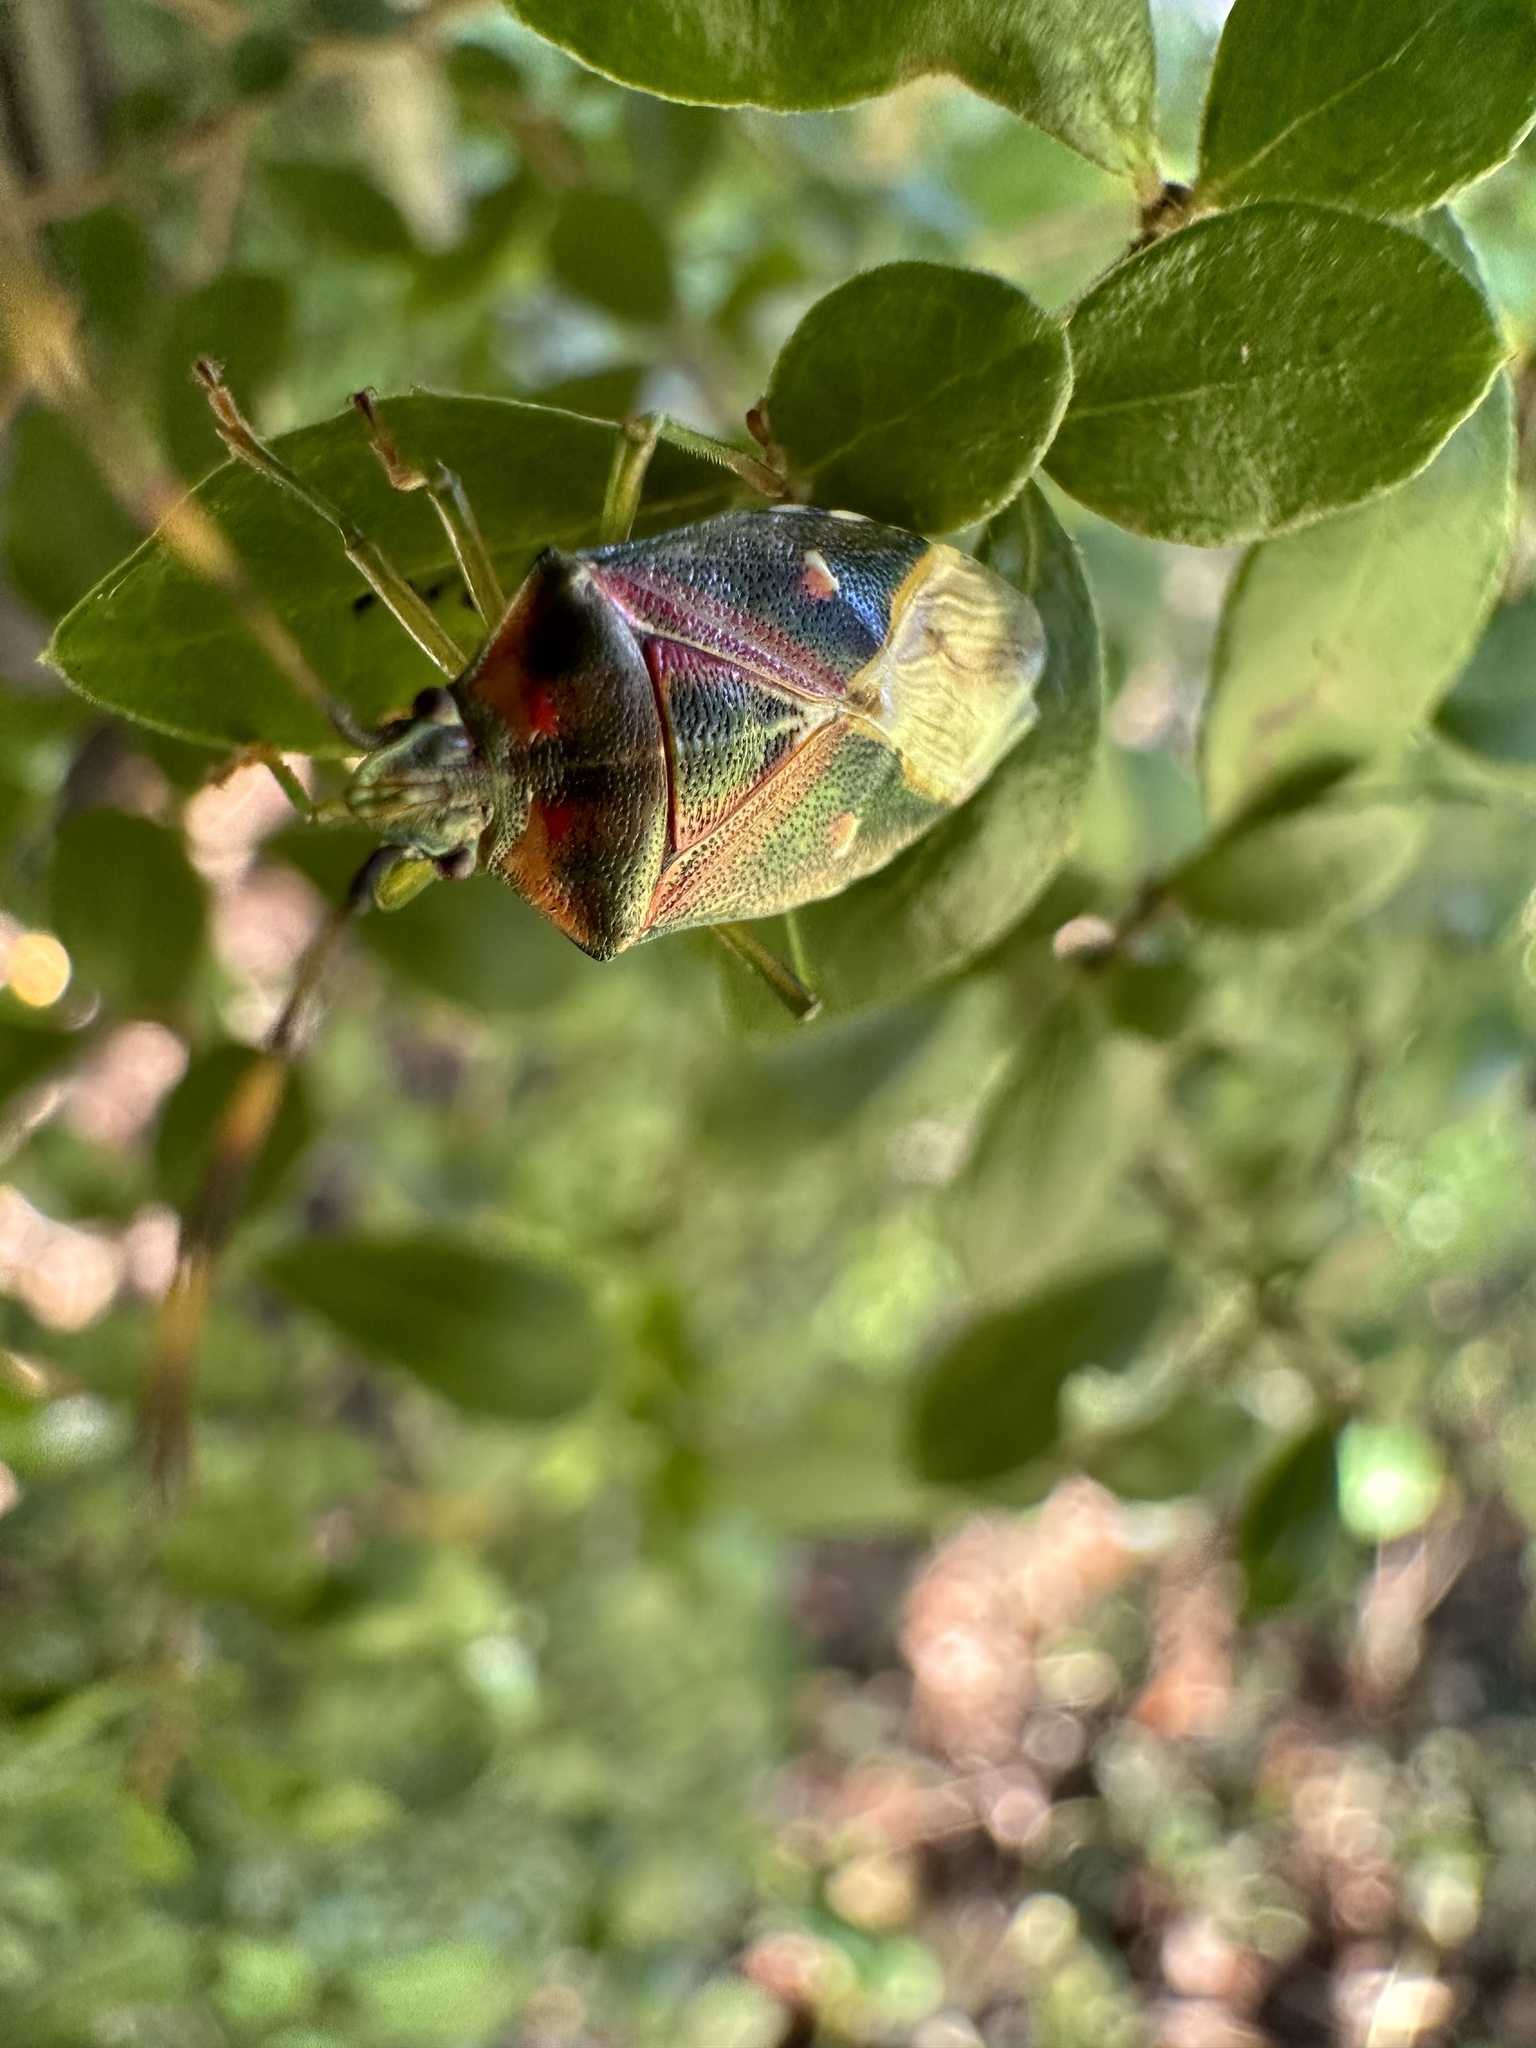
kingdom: Animalia
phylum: Arthropoda
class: Insecta
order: Hemiptera
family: Acanthosomatidae
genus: Planois
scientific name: Planois gayi
